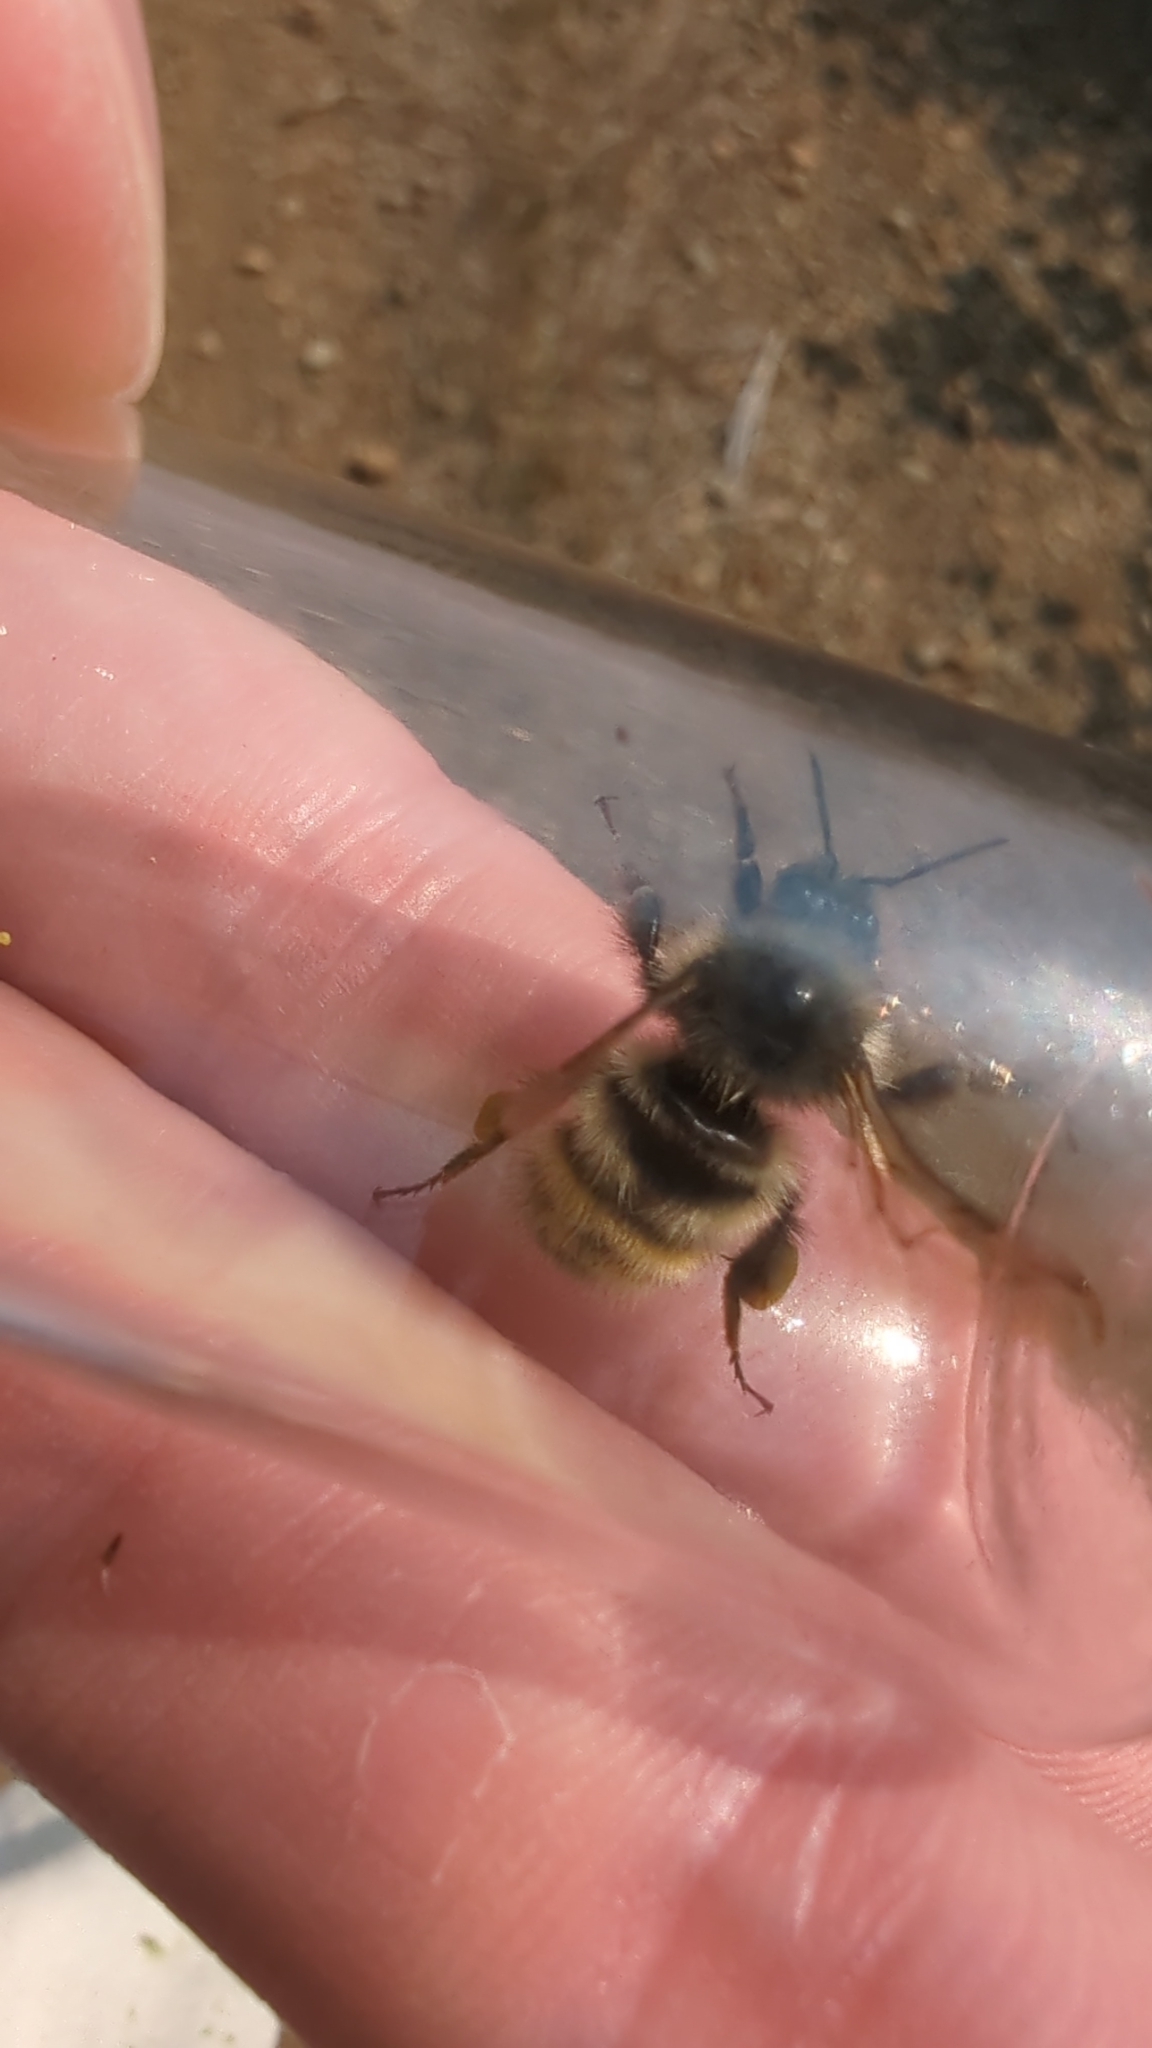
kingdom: Animalia
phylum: Arthropoda
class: Insecta
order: Hymenoptera
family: Apidae
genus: Bombus
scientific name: Bombus flavifrons
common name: Yellow head bumble bee
